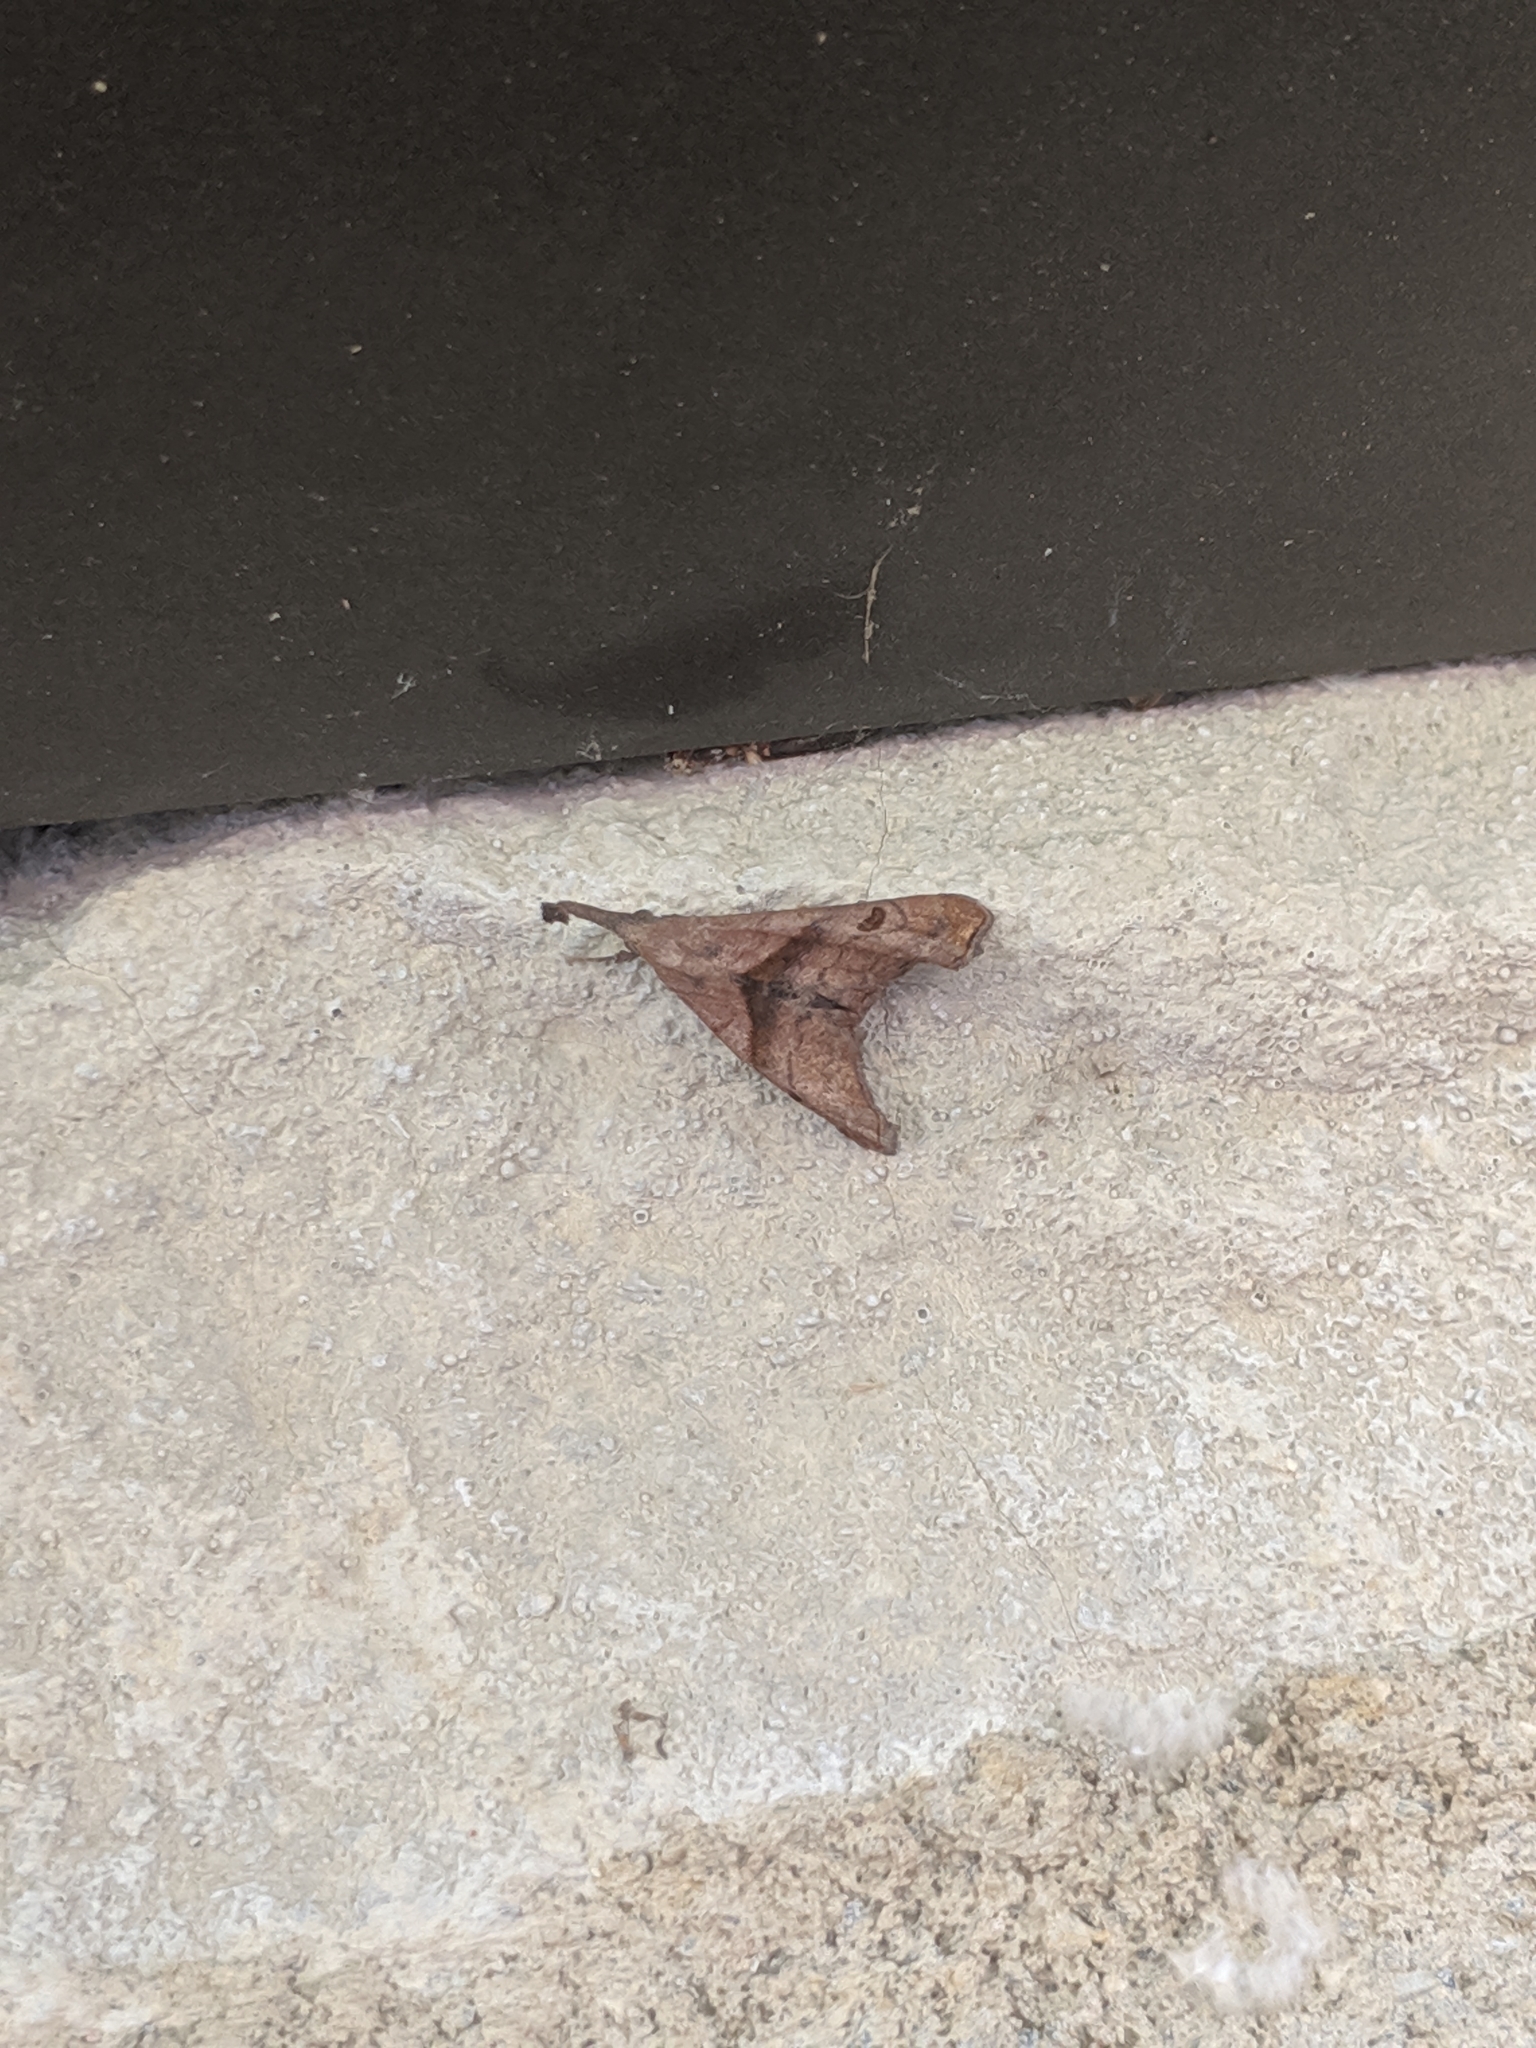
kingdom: Animalia
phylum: Arthropoda
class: Insecta
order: Lepidoptera
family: Erebidae
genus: Palthis
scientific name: Palthis angulalis
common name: Dark-spotted palthis moth
